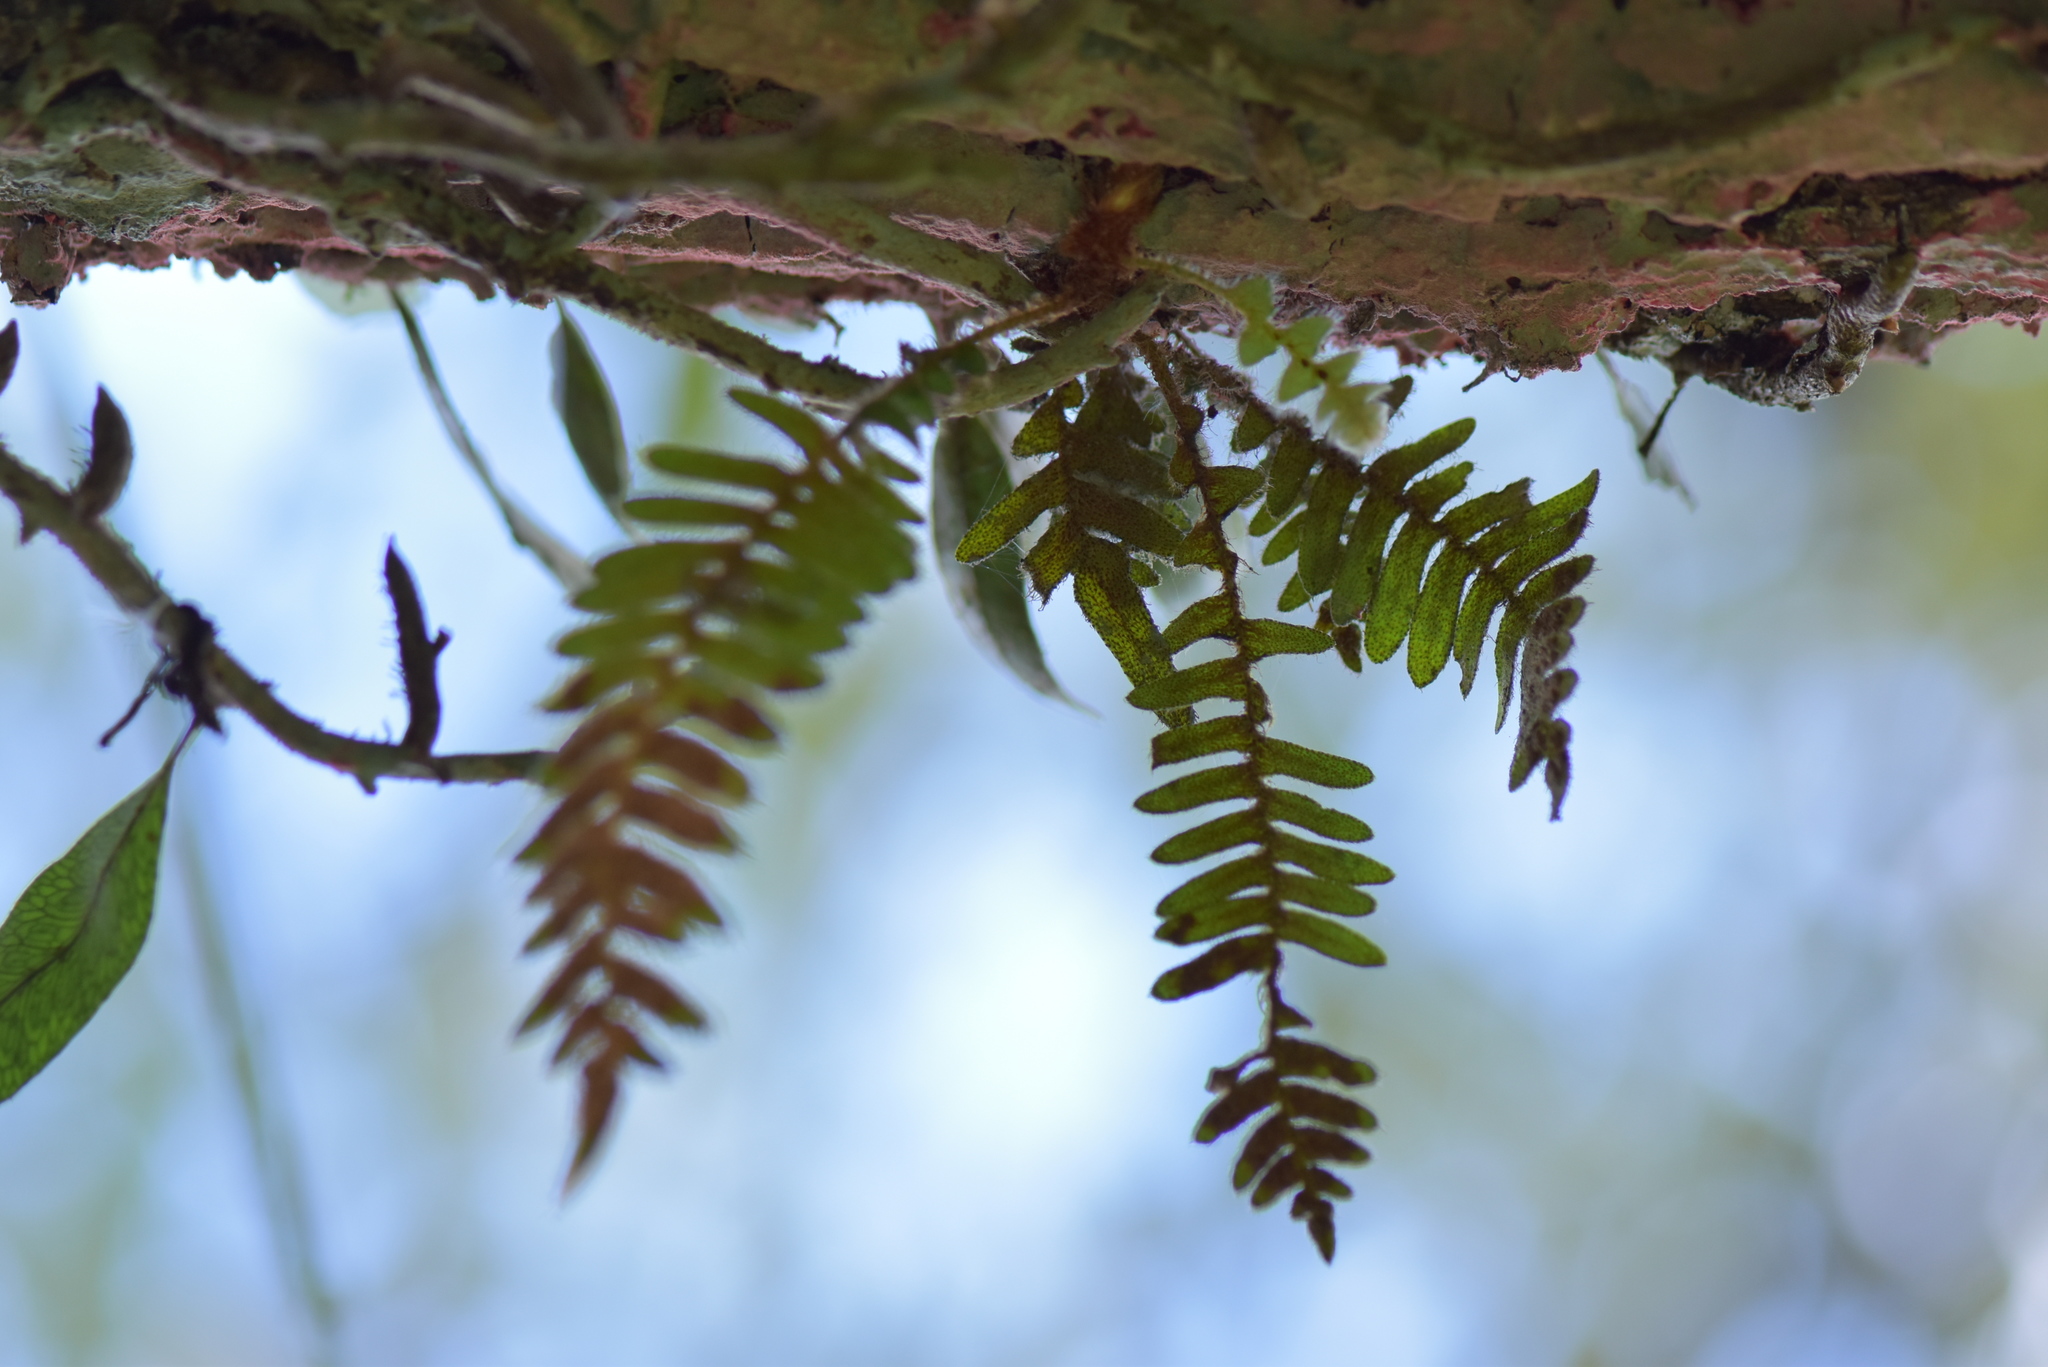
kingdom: Plantae
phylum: Tracheophyta
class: Polypodiopsida
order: Polypodiales
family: Polypodiaceae
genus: Pleopeltis
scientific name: Pleopeltis polypodioides
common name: Resurrection fern
